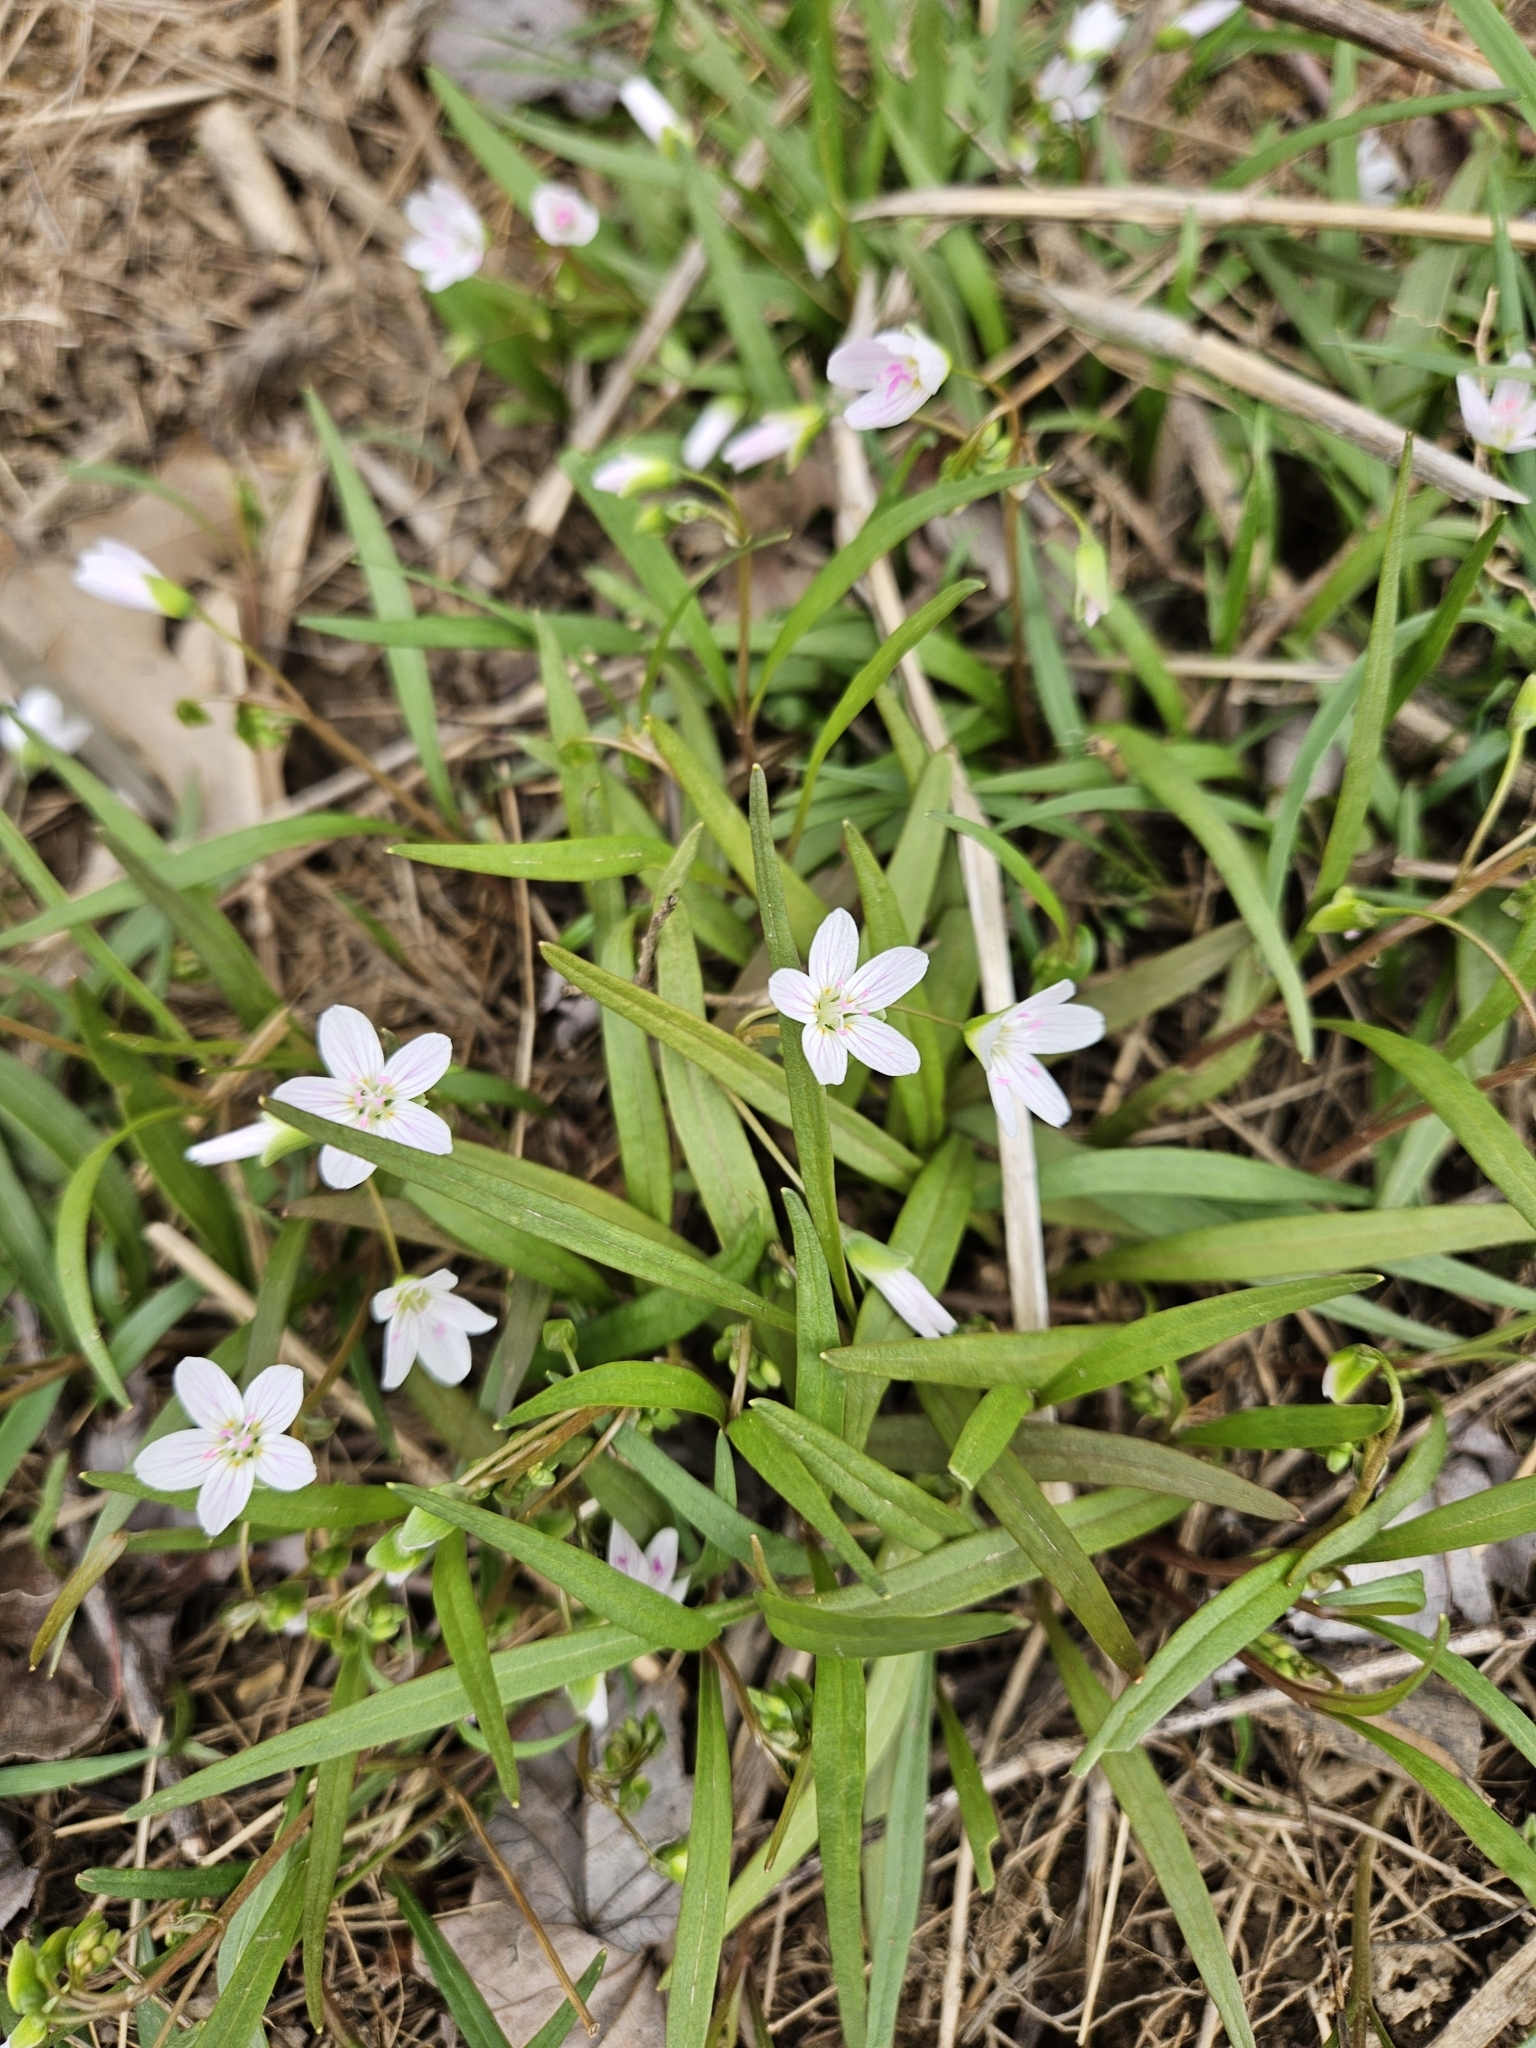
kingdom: Plantae
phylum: Tracheophyta
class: Magnoliopsida
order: Caryophyllales
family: Montiaceae
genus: Claytonia
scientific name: Claytonia virginica
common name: Virginia springbeauty
